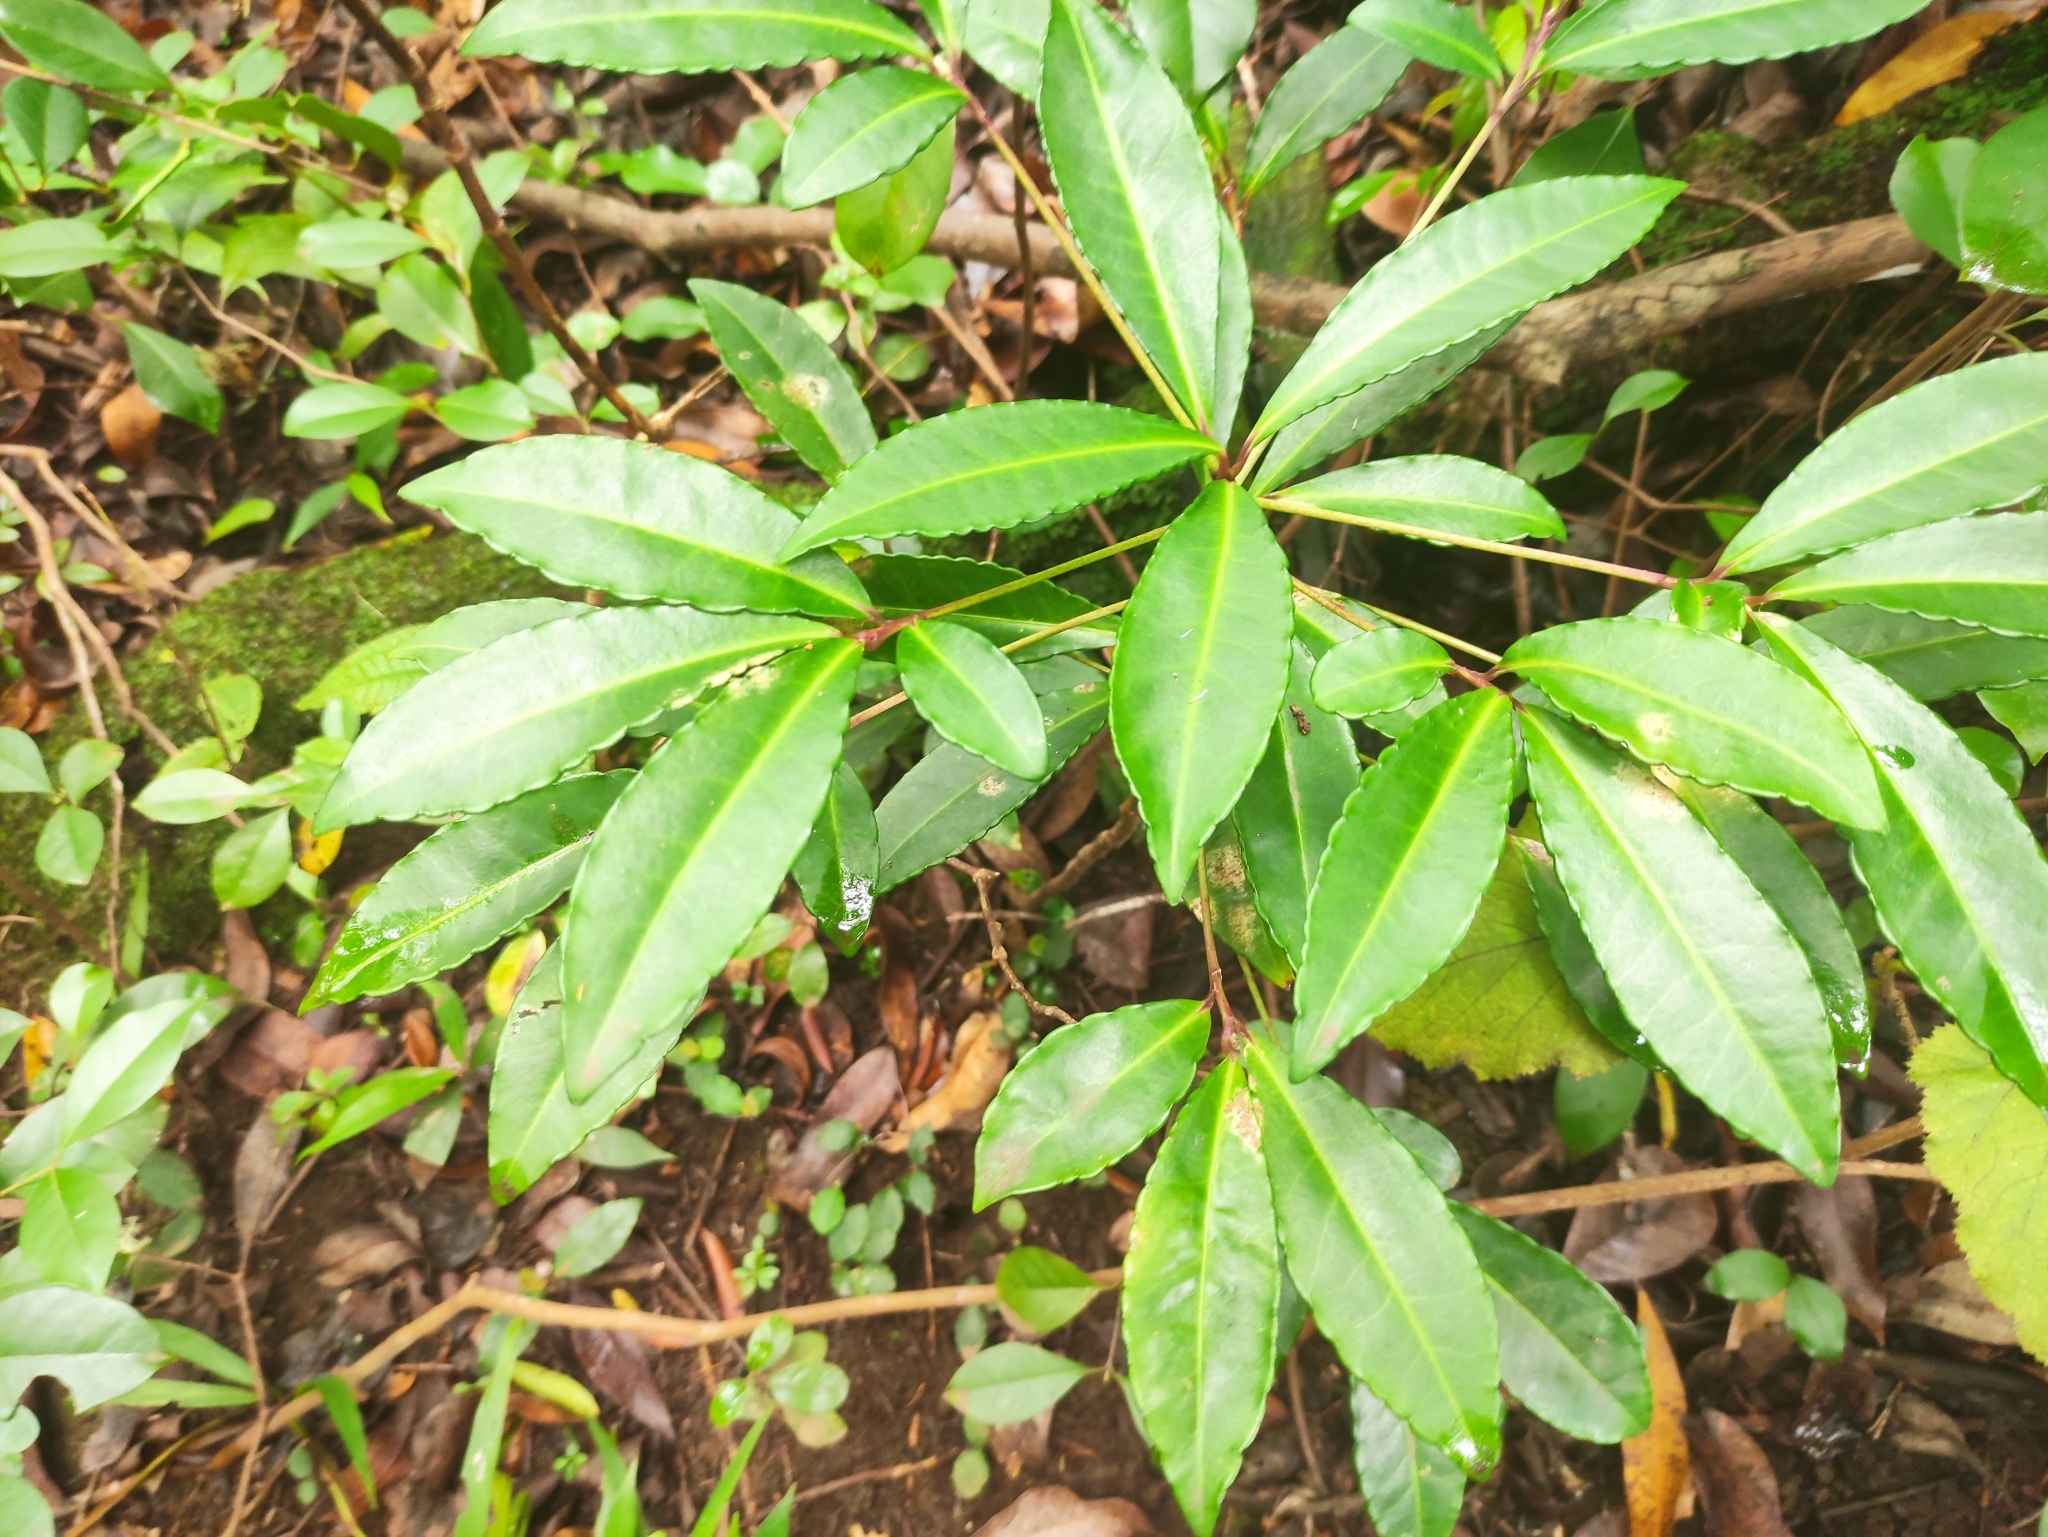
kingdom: Plantae
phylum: Tracheophyta
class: Magnoliopsida
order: Ericales
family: Primulaceae
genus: Ardisia
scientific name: Ardisia crenata
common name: Hen's eyes
